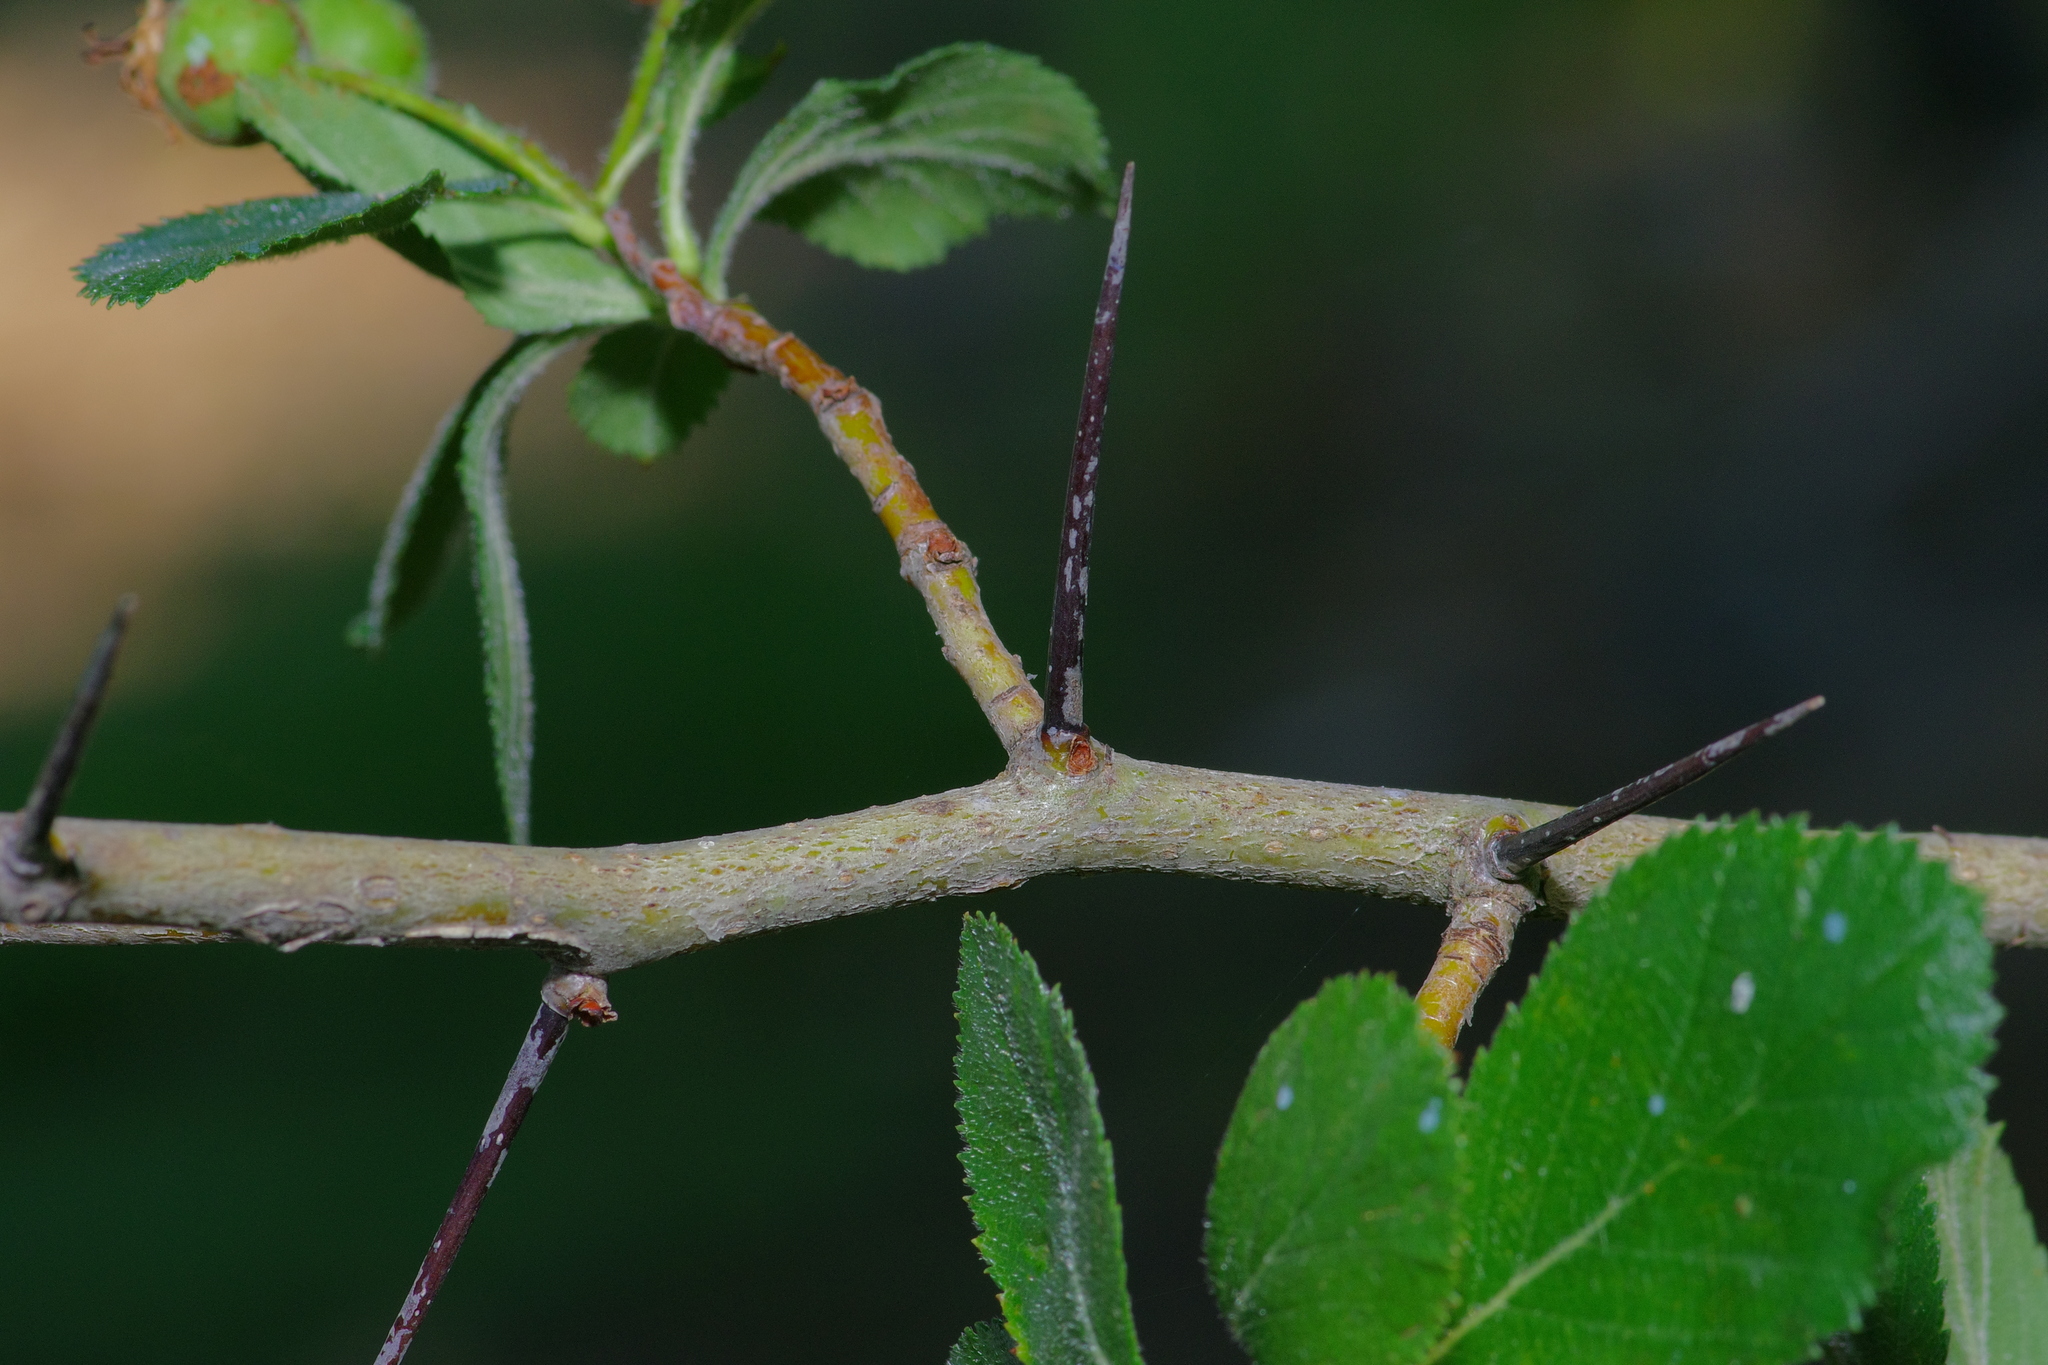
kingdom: Plantae
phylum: Tracheophyta
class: Magnoliopsida
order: Rosales
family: Rosaceae
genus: Crataegus
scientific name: Crataegus tracyi
